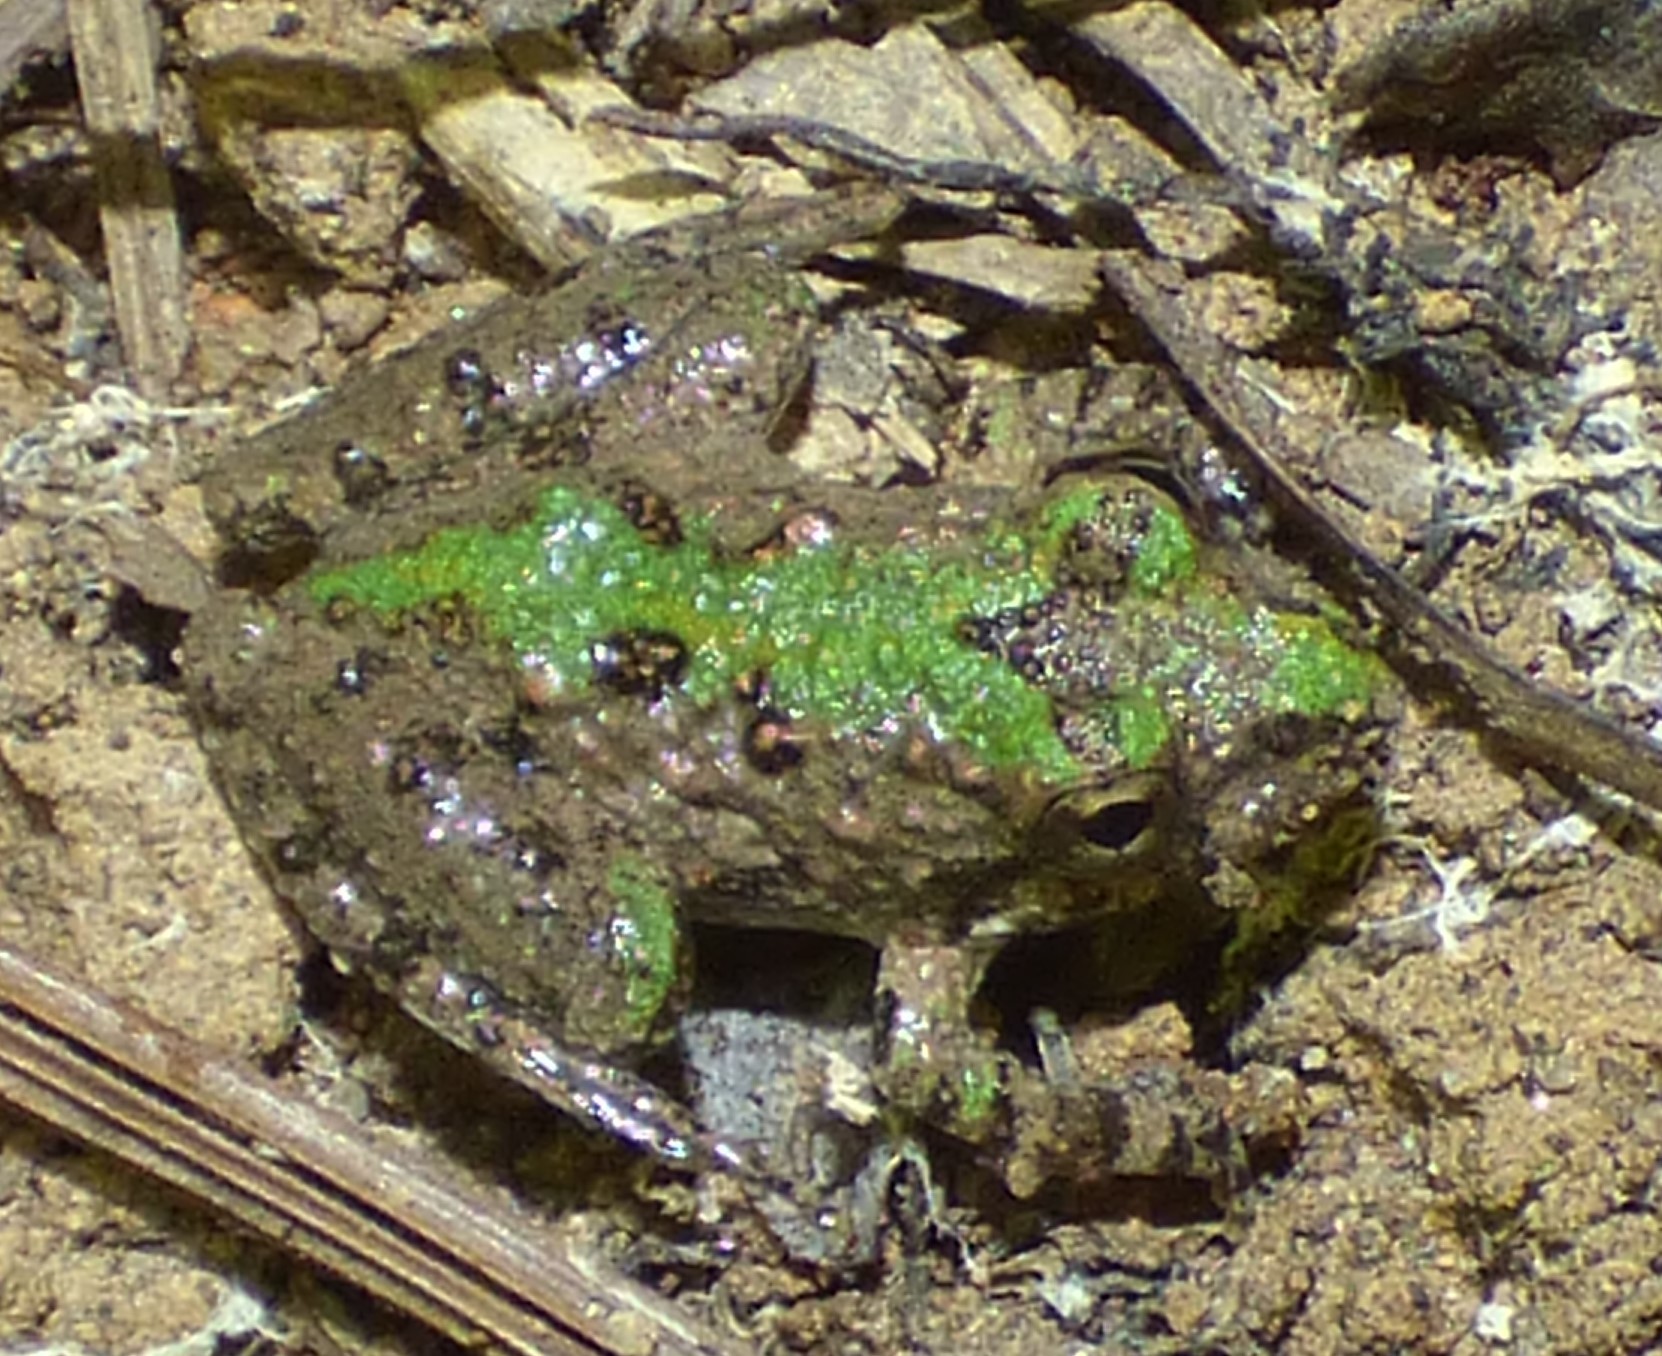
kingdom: Animalia
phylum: Chordata
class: Amphibia
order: Anura
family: Hylidae
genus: Acris
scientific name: Acris crepitans
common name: Northern cricket frog
